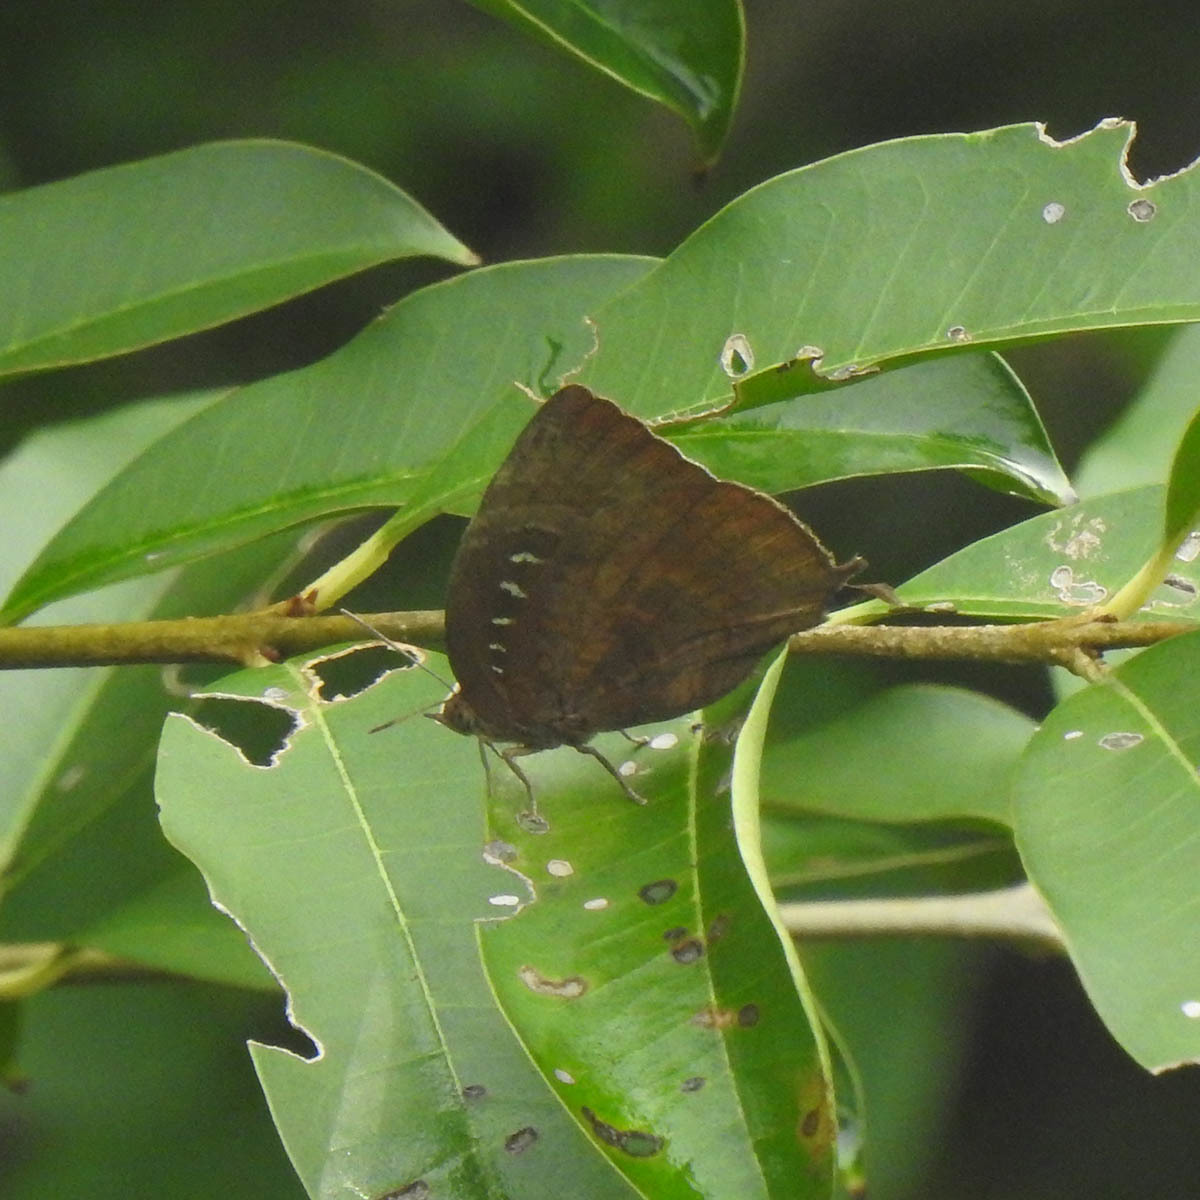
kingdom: Animalia
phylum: Arthropoda
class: Insecta
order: Lepidoptera
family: Lycaenidae
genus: Arhopala
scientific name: Arhopala centaurus
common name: Dull oak-blue
